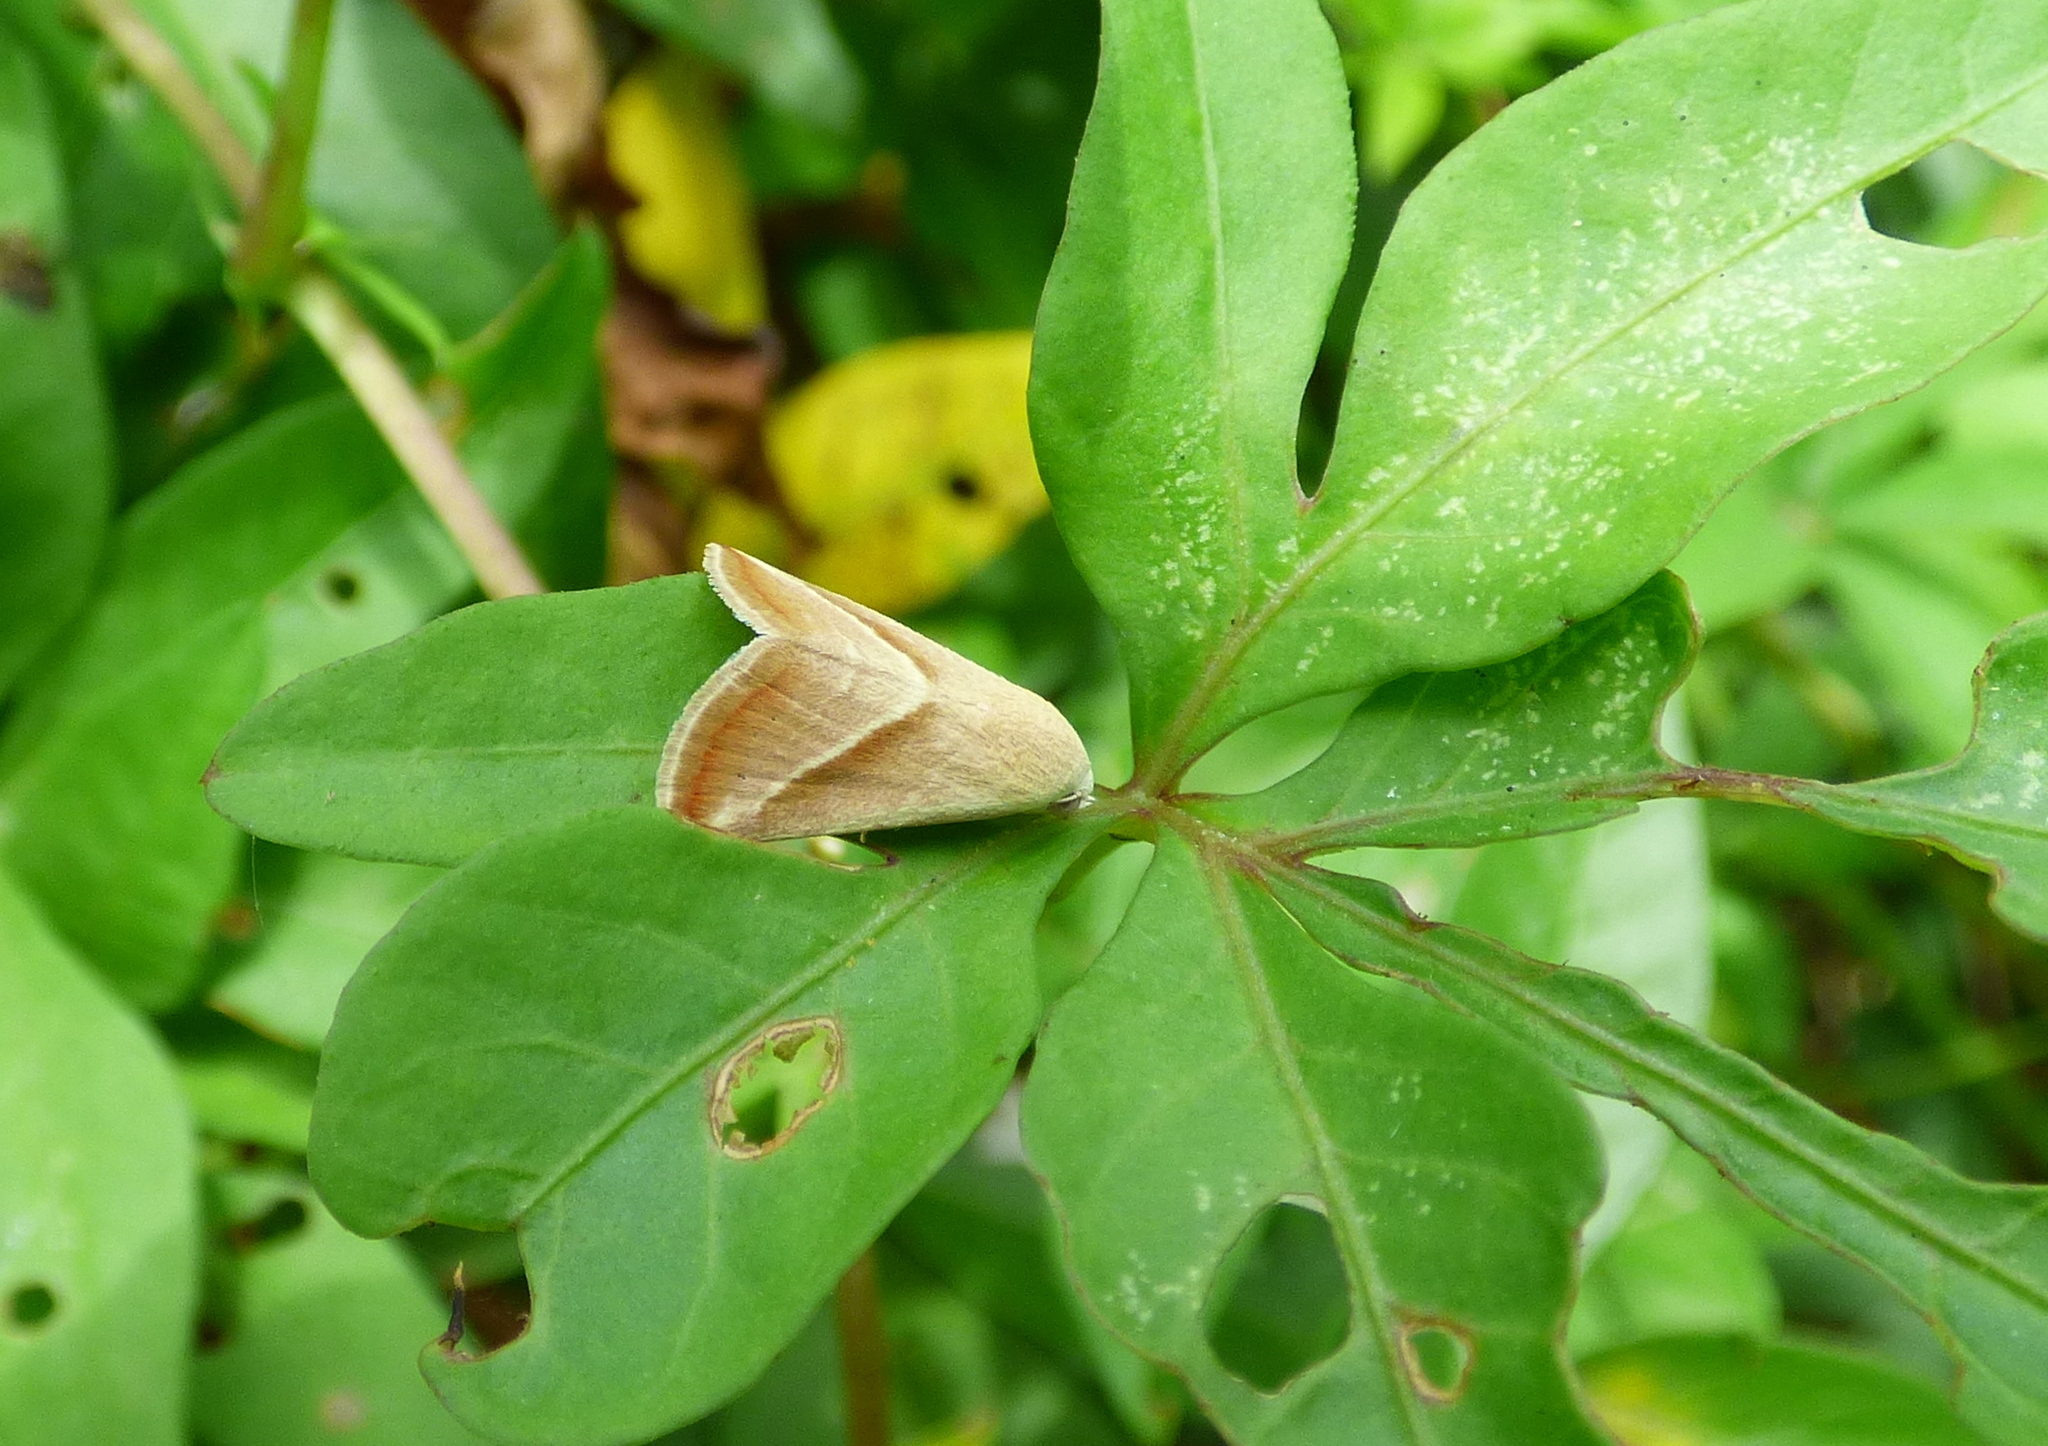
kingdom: Animalia
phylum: Arthropoda
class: Insecta
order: Lepidoptera
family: Noctuidae
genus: Eublemma
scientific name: Eublemma recta
